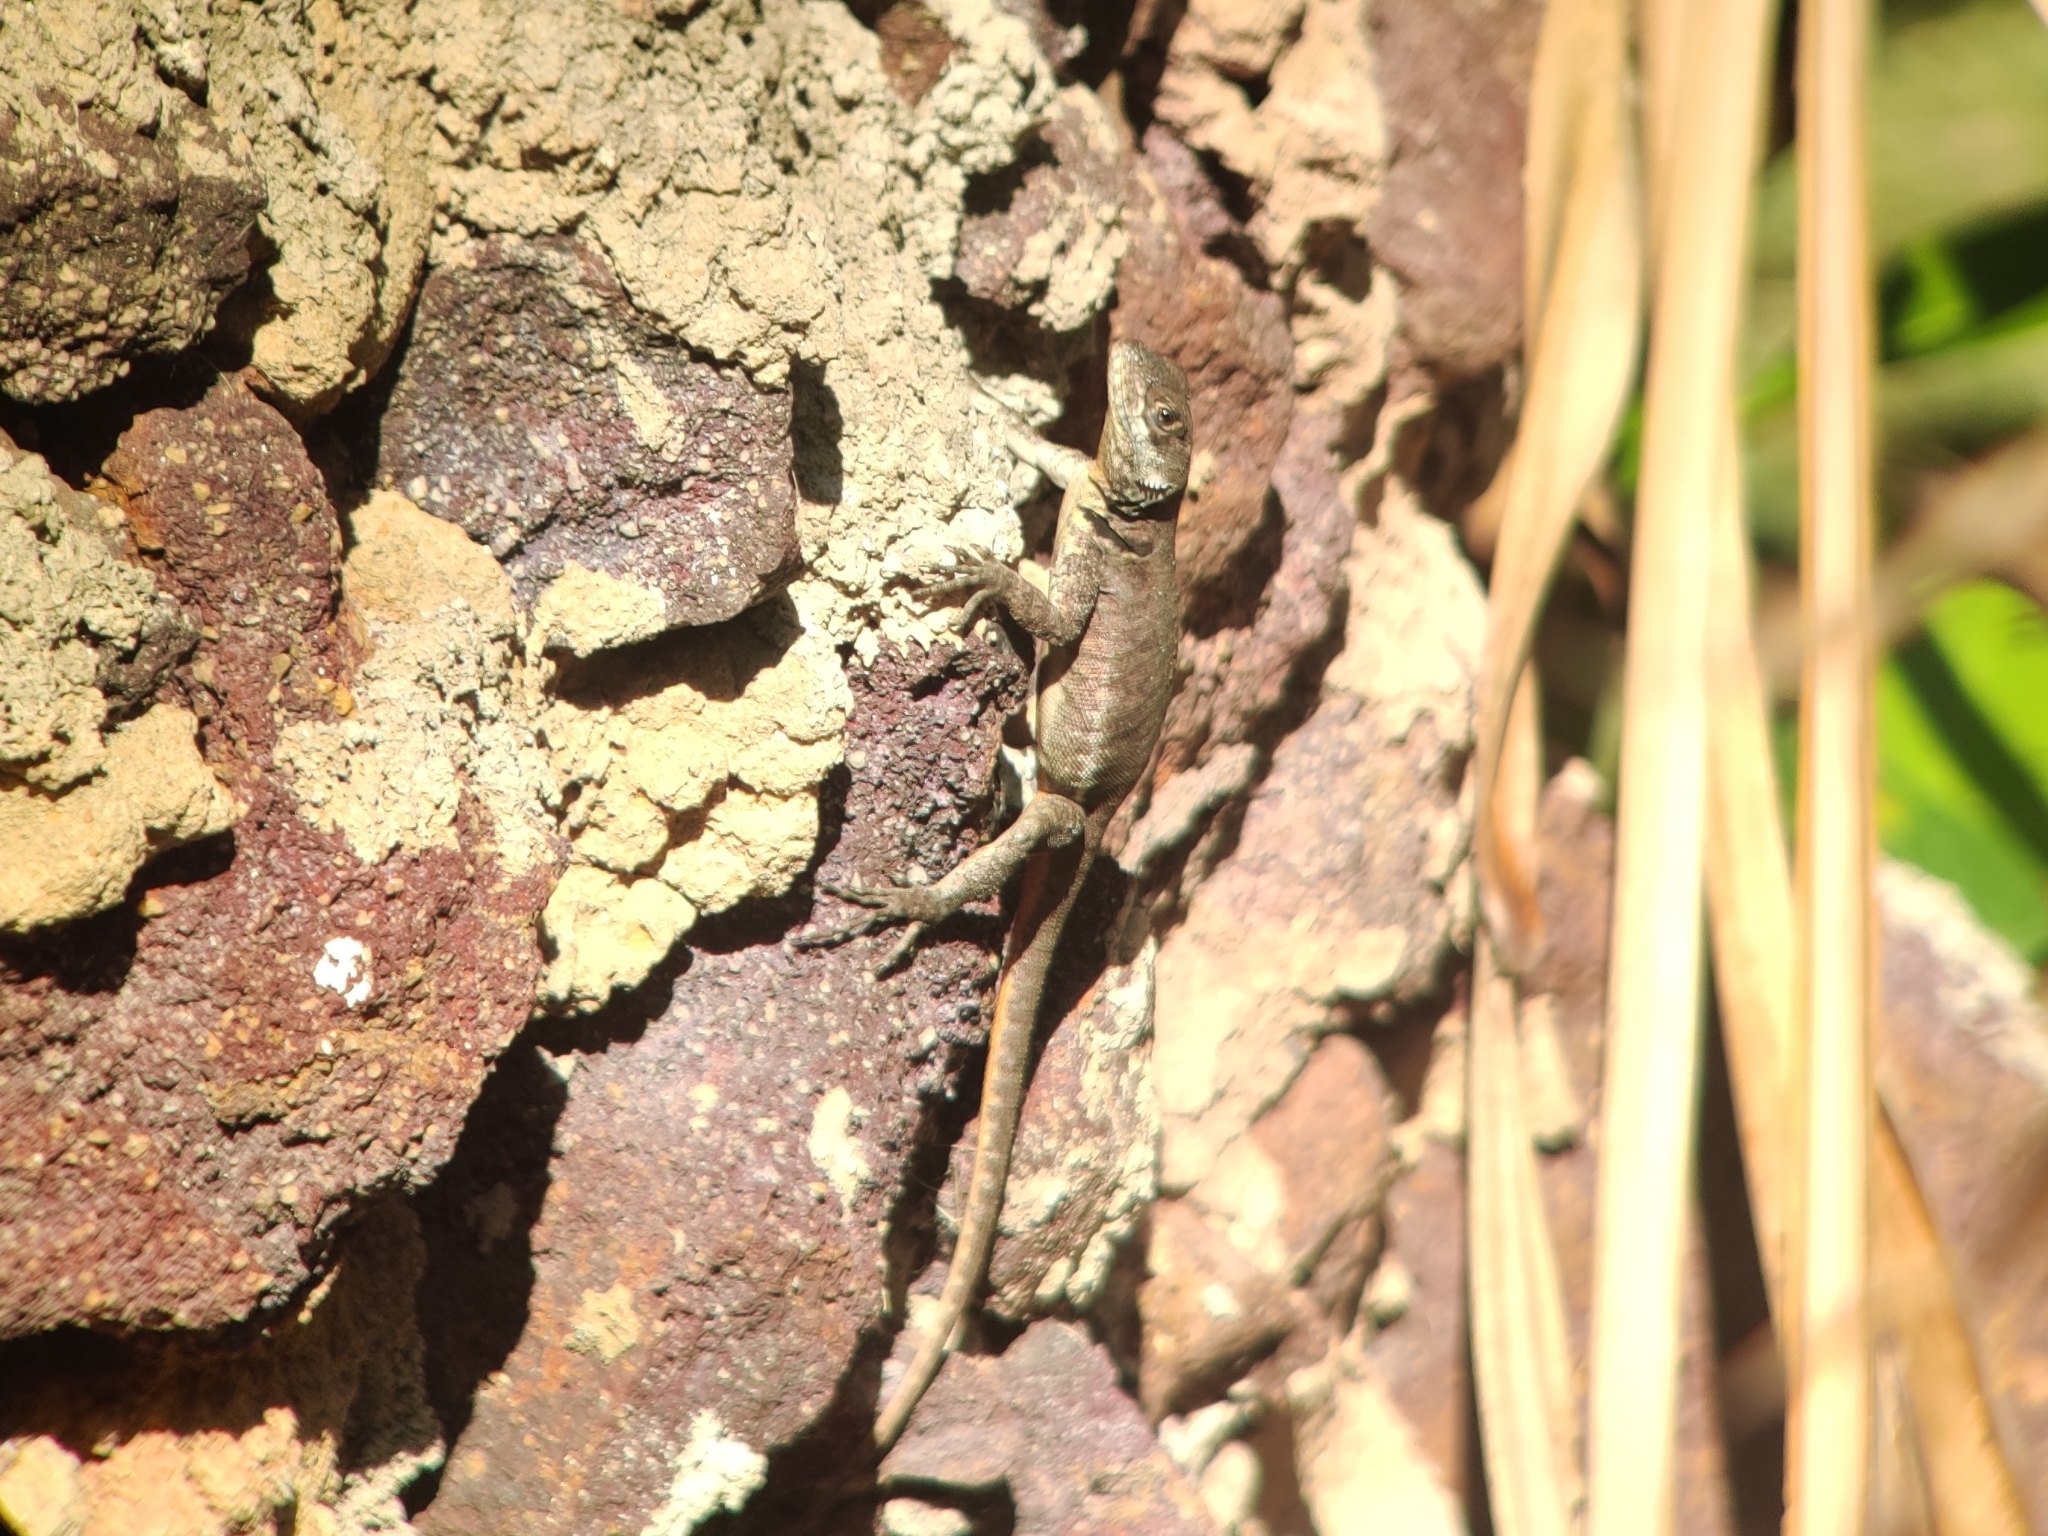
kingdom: Animalia
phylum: Chordata
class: Squamata
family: Tropiduridae
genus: Tropidurus
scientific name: Tropidurus torquatus
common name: Amazon lava lizard
